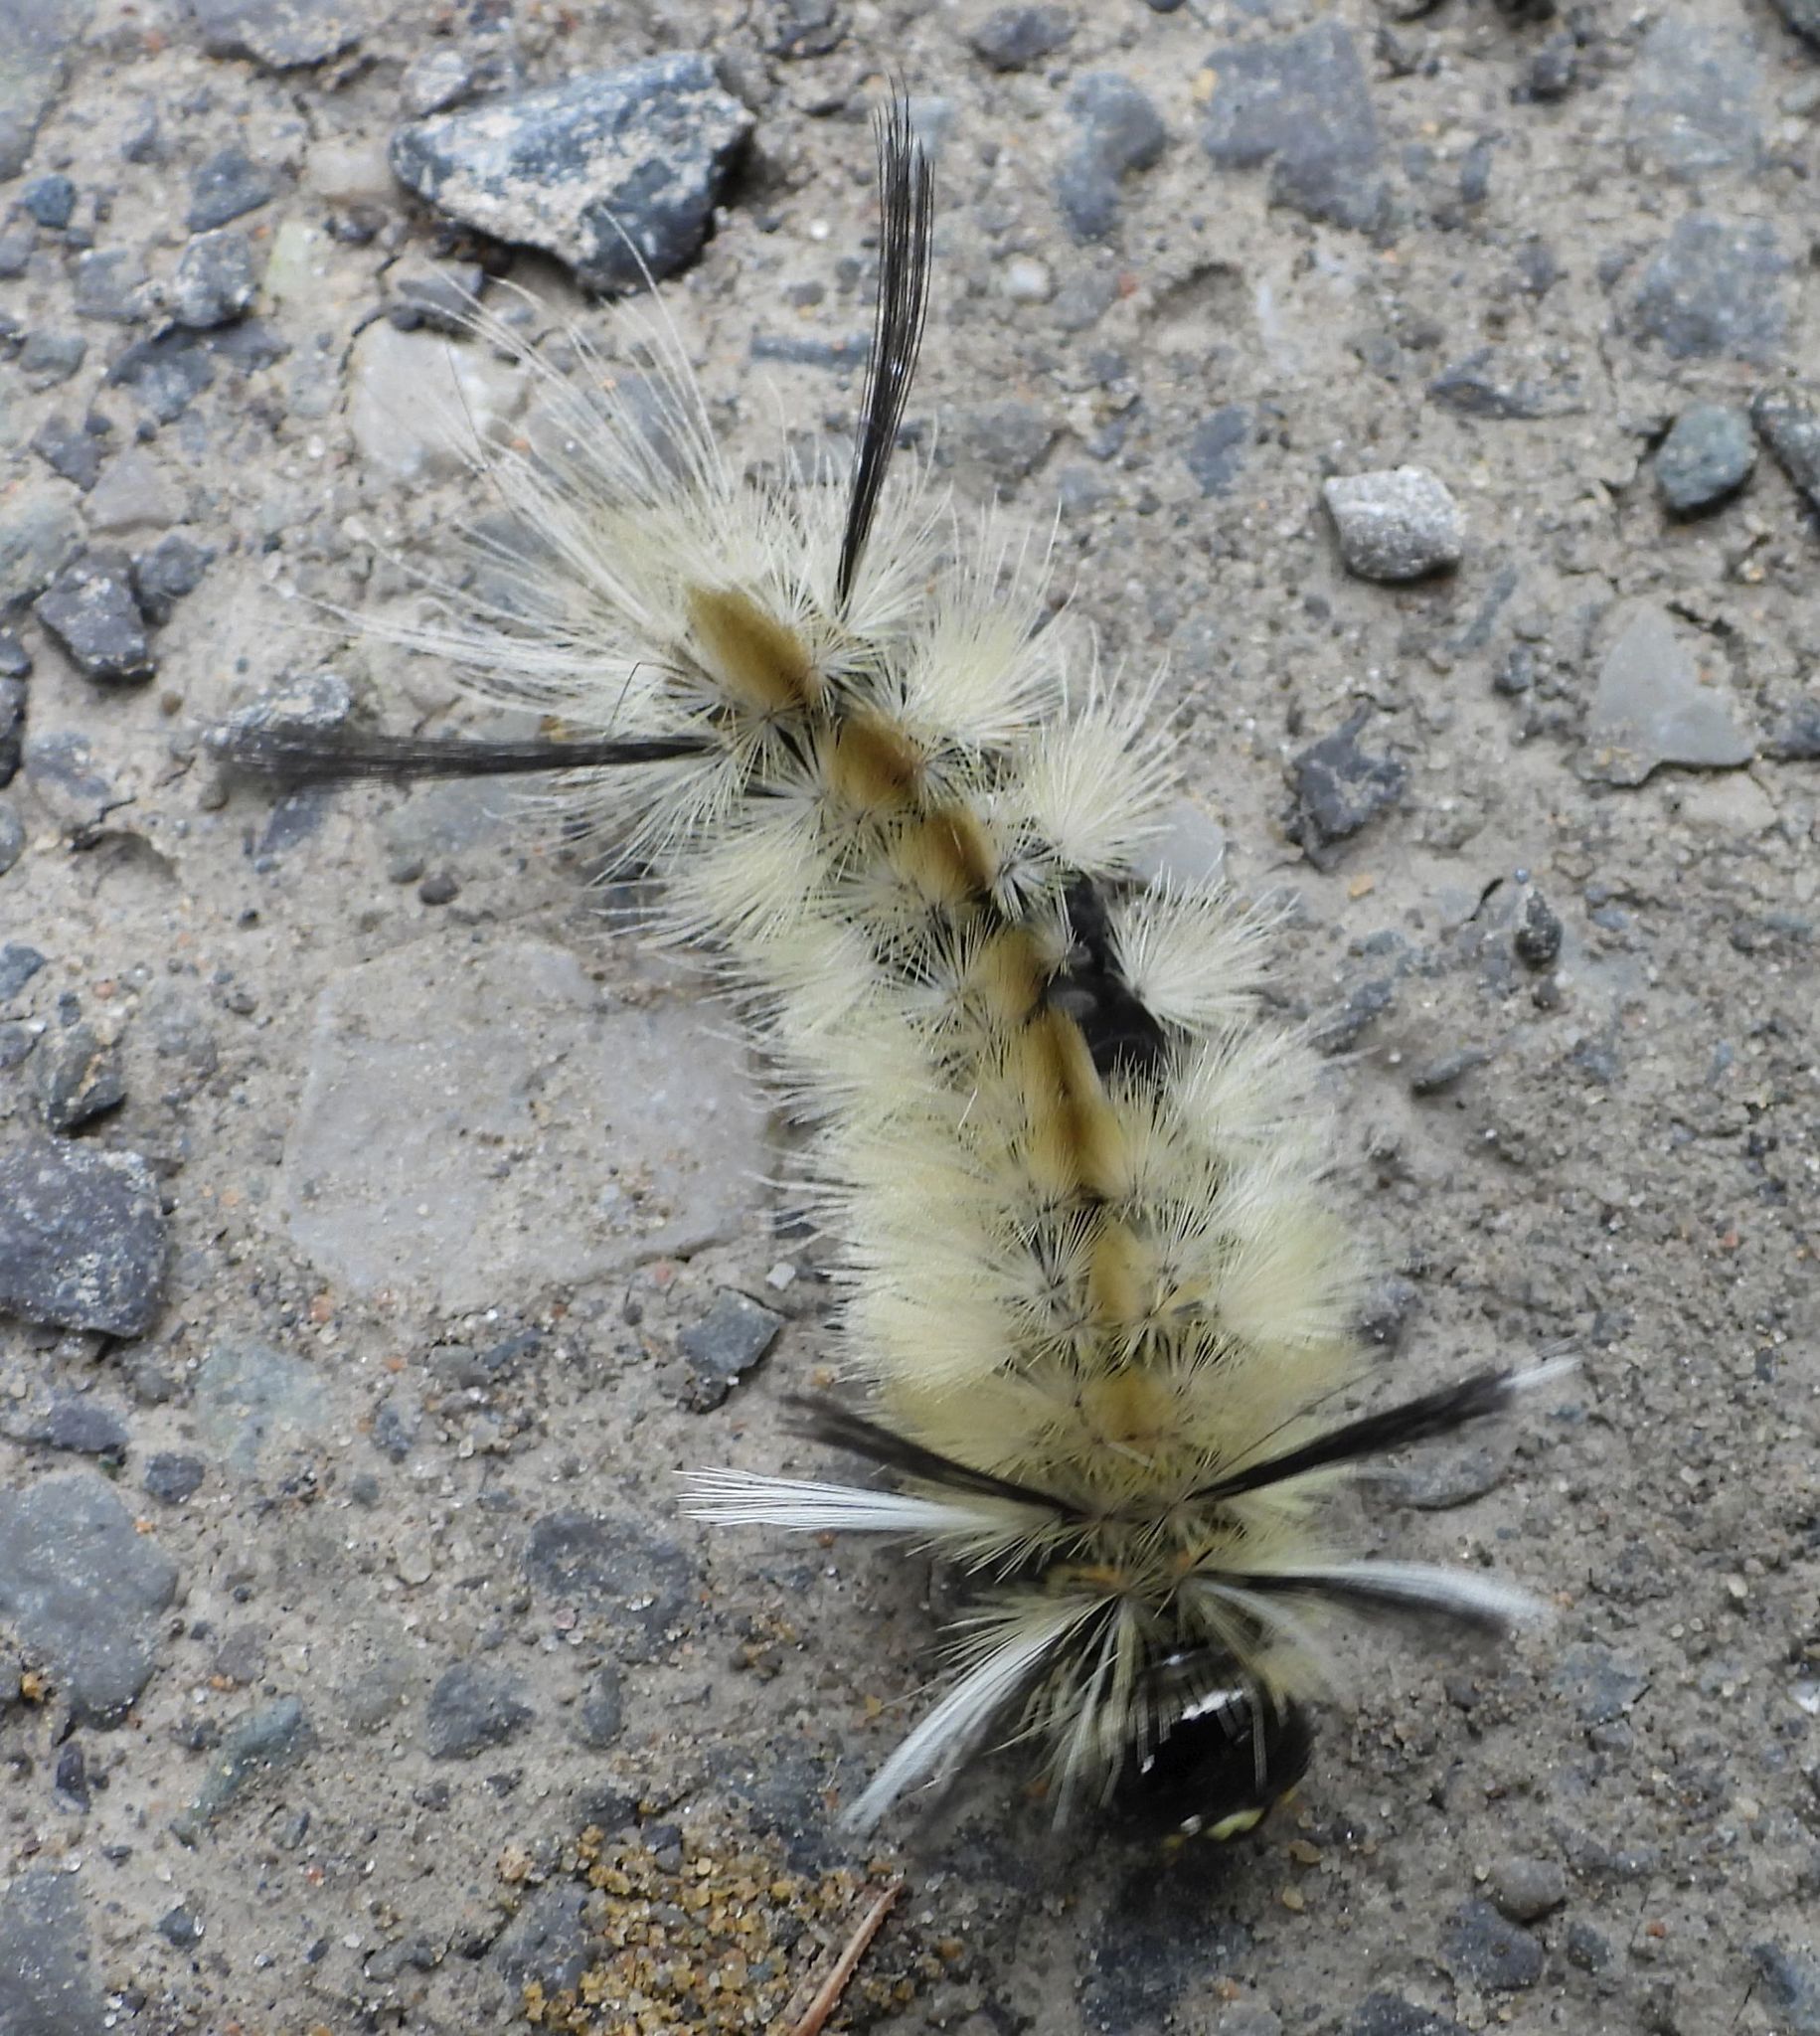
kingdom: Animalia
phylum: Arthropoda
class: Insecta
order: Lepidoptera
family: Erebidae
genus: Halysidota
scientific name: Halysidota tessellaris
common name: Banded tussock moth
